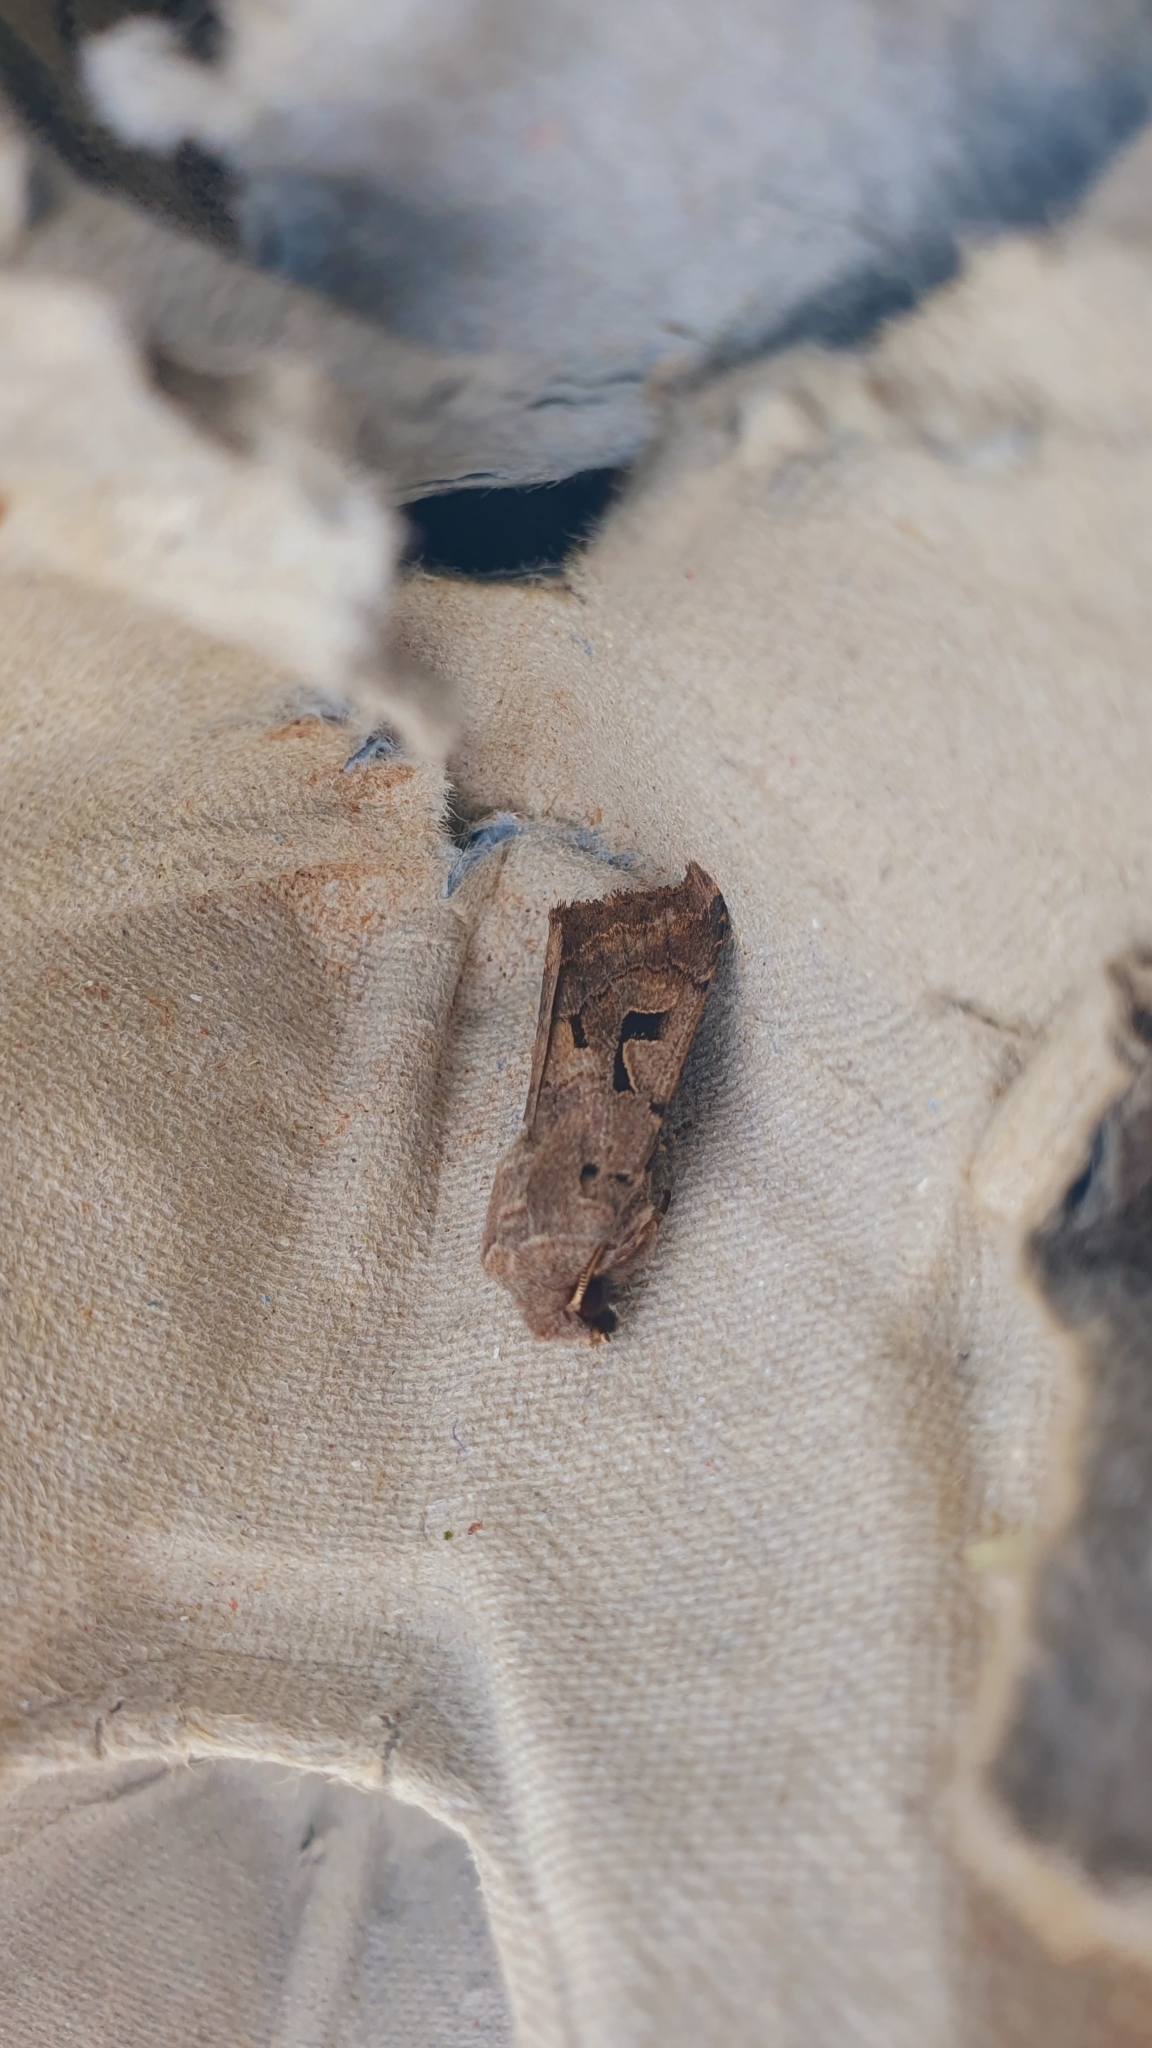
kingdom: Animalia
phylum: Arthropoda
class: Insecta
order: Lepidoptera
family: Noctuidae
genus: Orthosia
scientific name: Orthosia gothica
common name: Hebrew character
